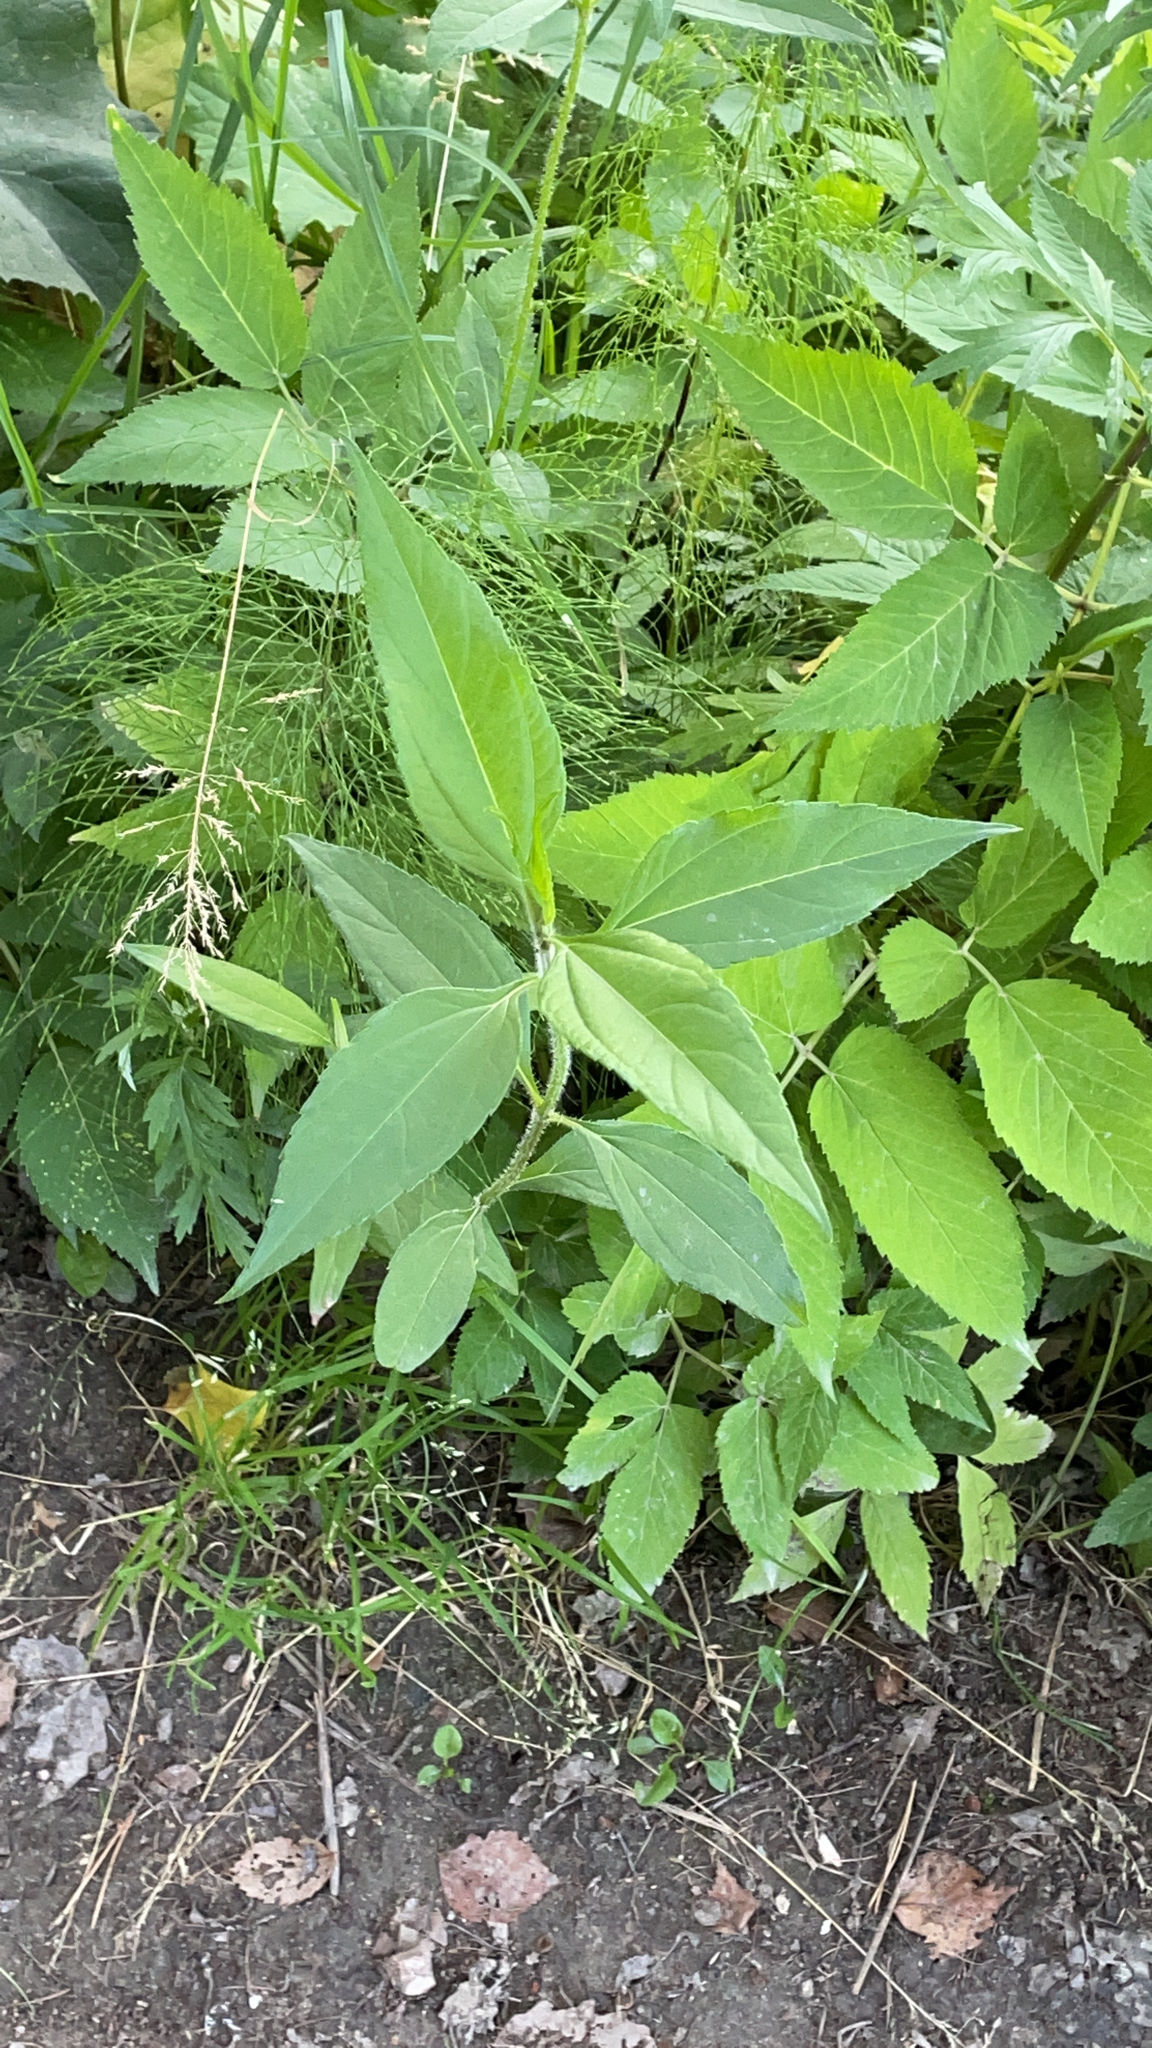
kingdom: Plantae
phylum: Tracheophyta
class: Magnoliopsida
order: Asterales
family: Asteraceae
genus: Helianthus
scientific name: Helianthus tuberosus
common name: Jerusalem artichoke
